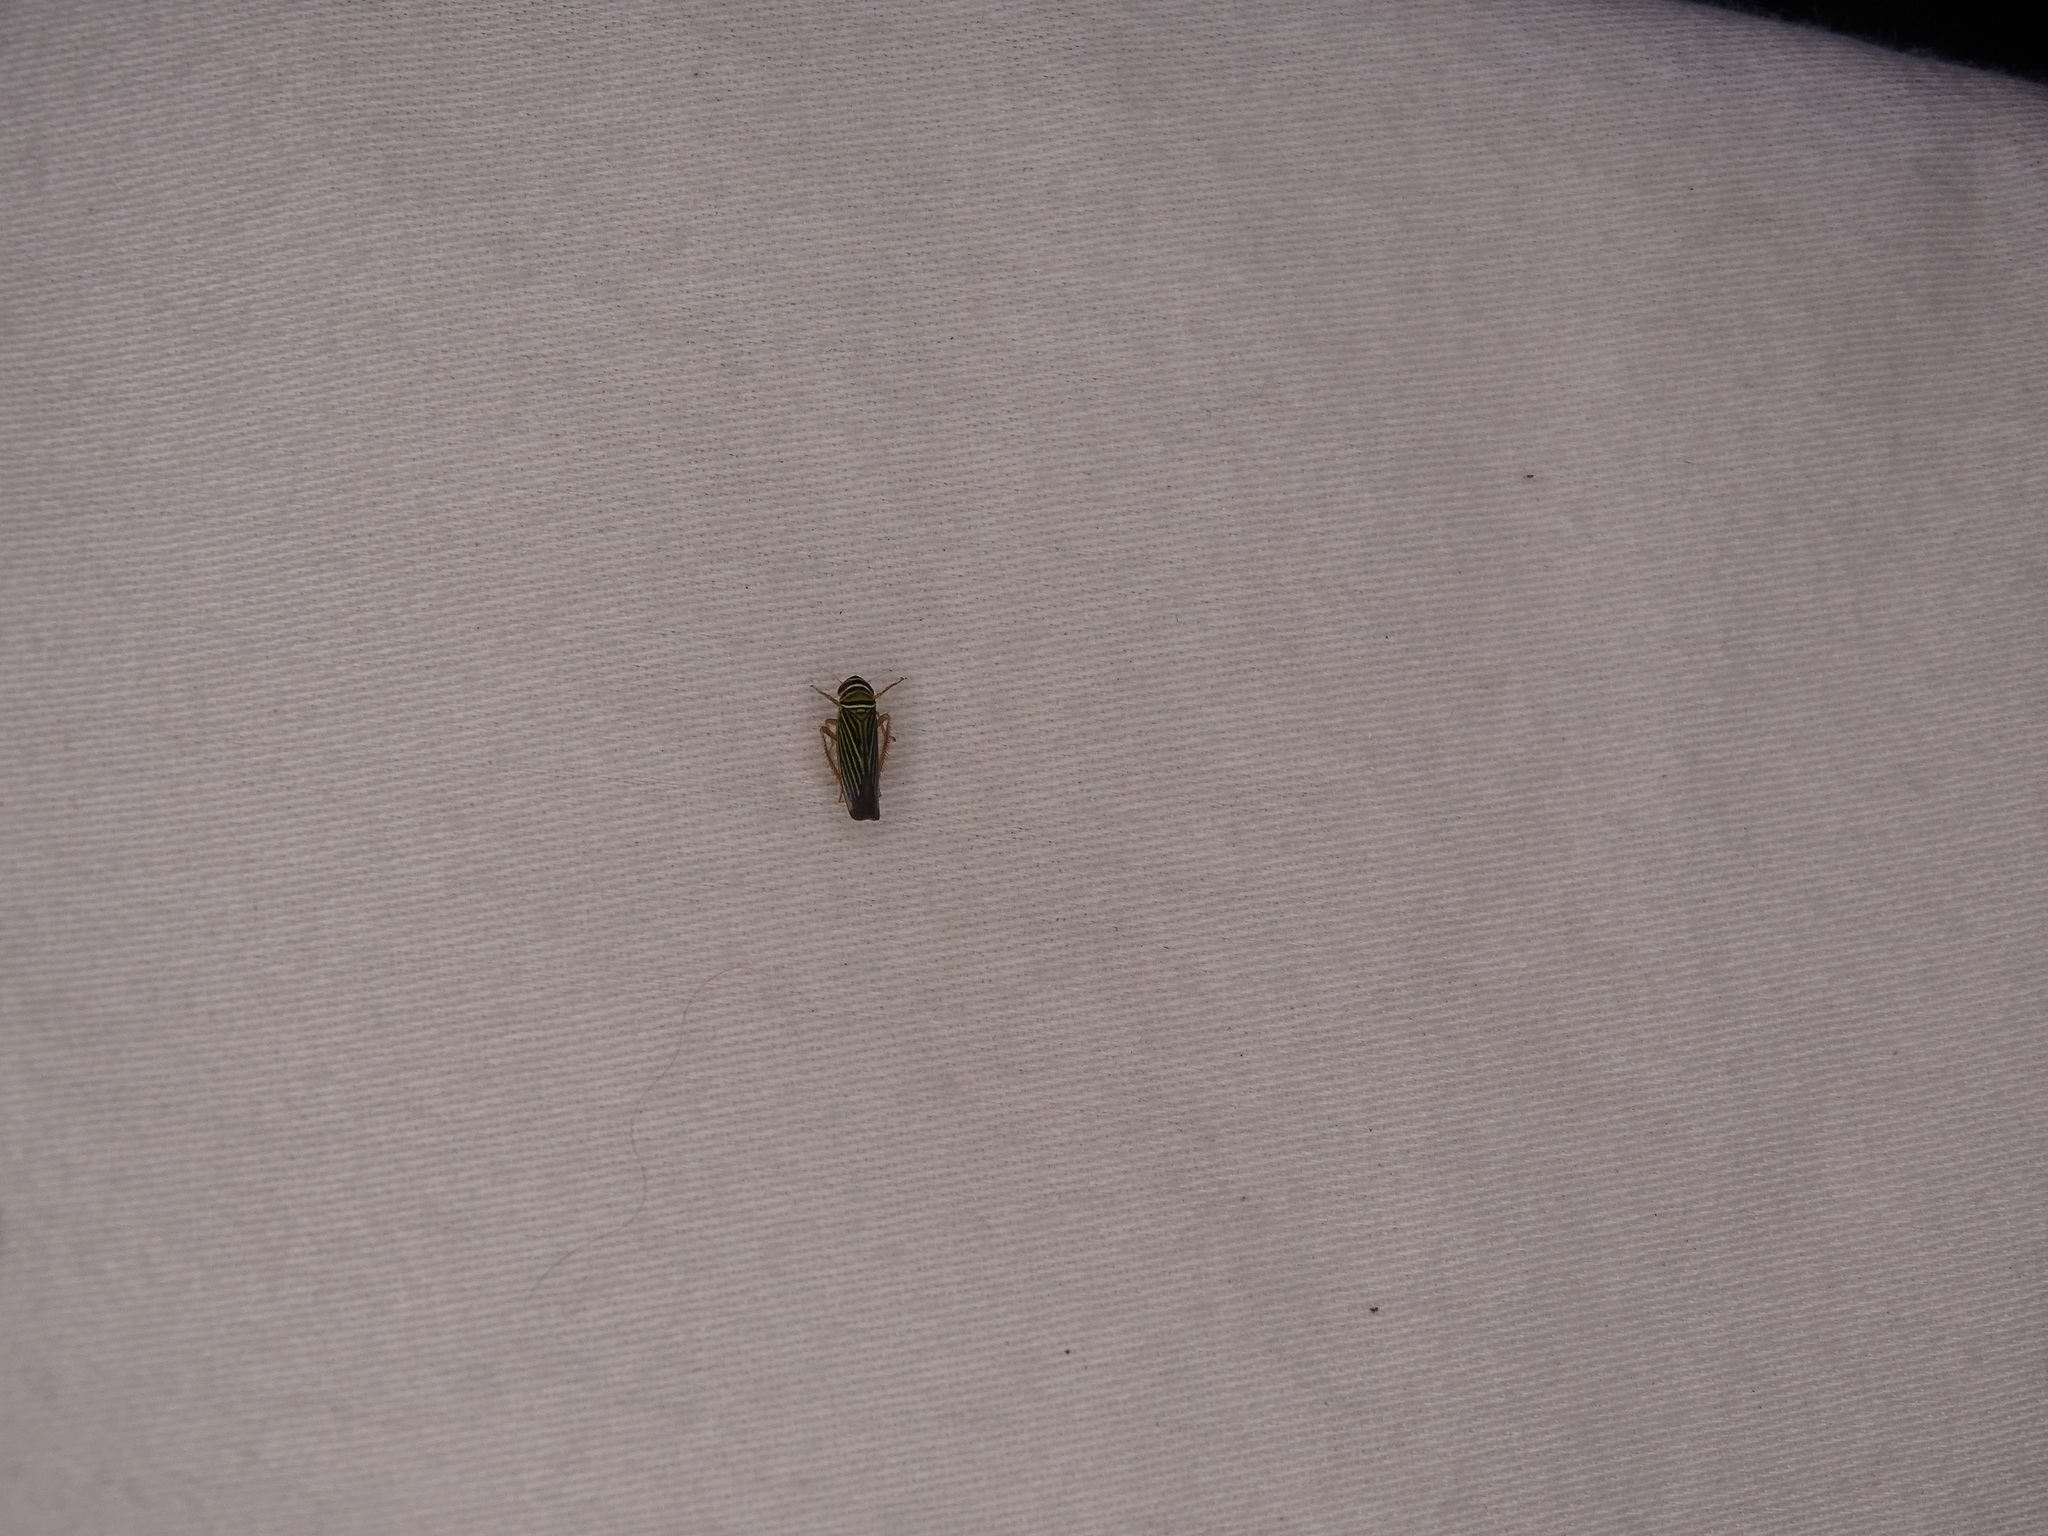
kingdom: Animalia
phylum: Arthropoda
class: Insecta
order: Hemiptera
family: Cicadellidae
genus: Tylozygus
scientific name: Tylozygus bifidus
